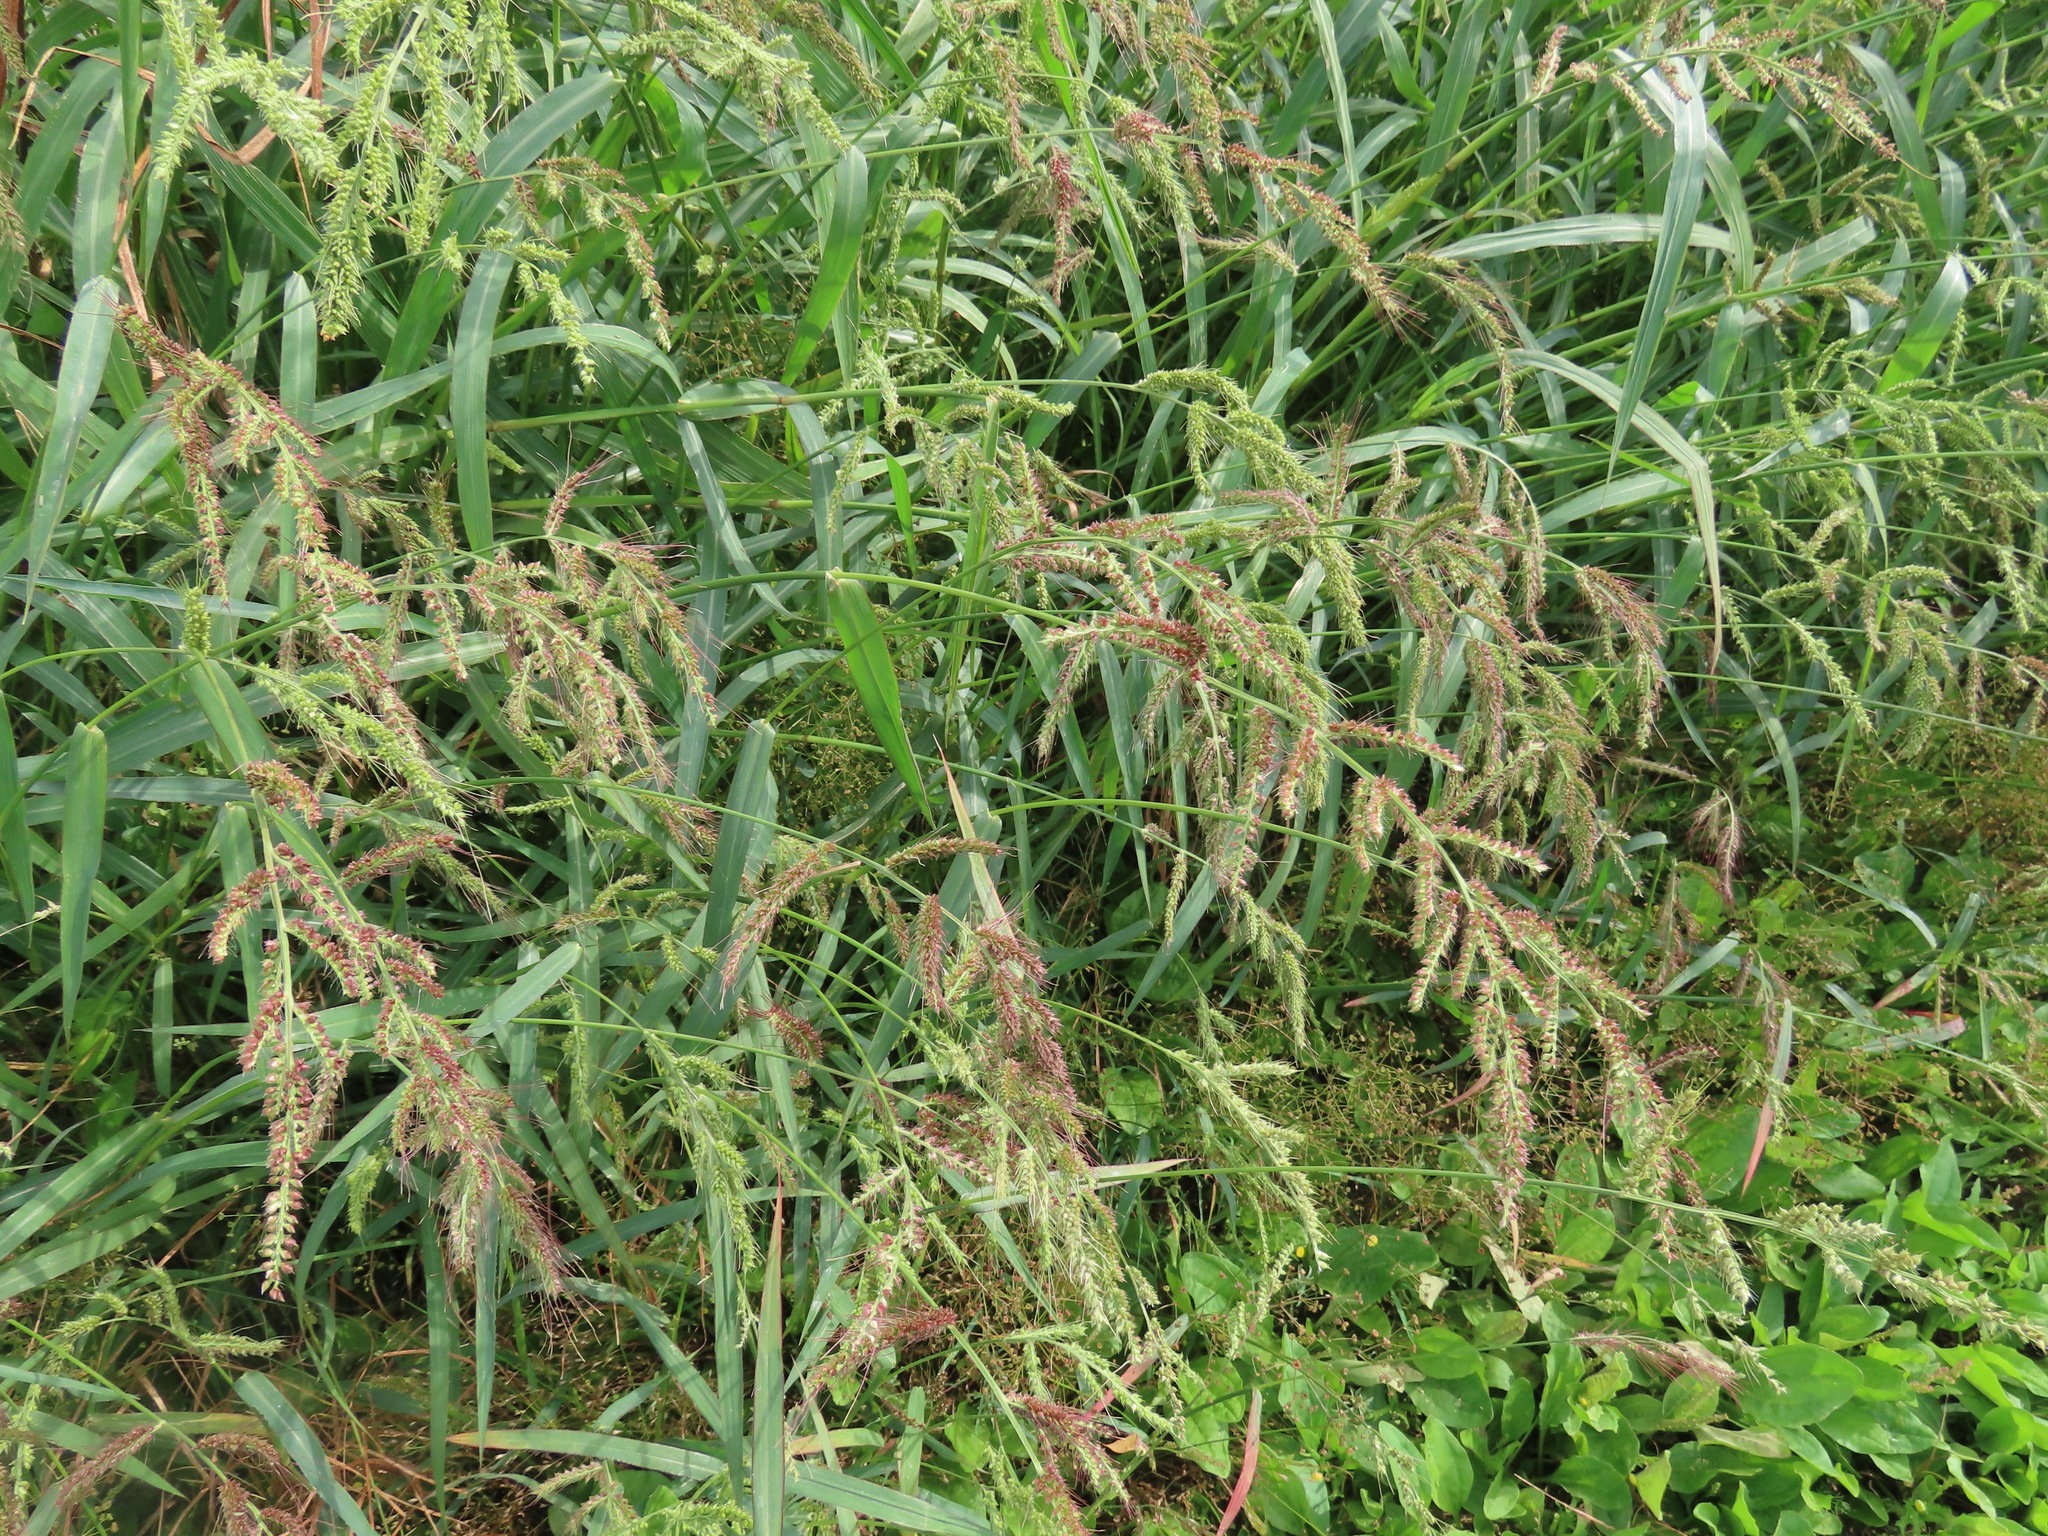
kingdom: Plantae
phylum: Tracheophyta
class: Liliopsida
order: Poales
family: Poaceae
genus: Echinochloa
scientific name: Echinochloa crus-galli
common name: Cockspur
